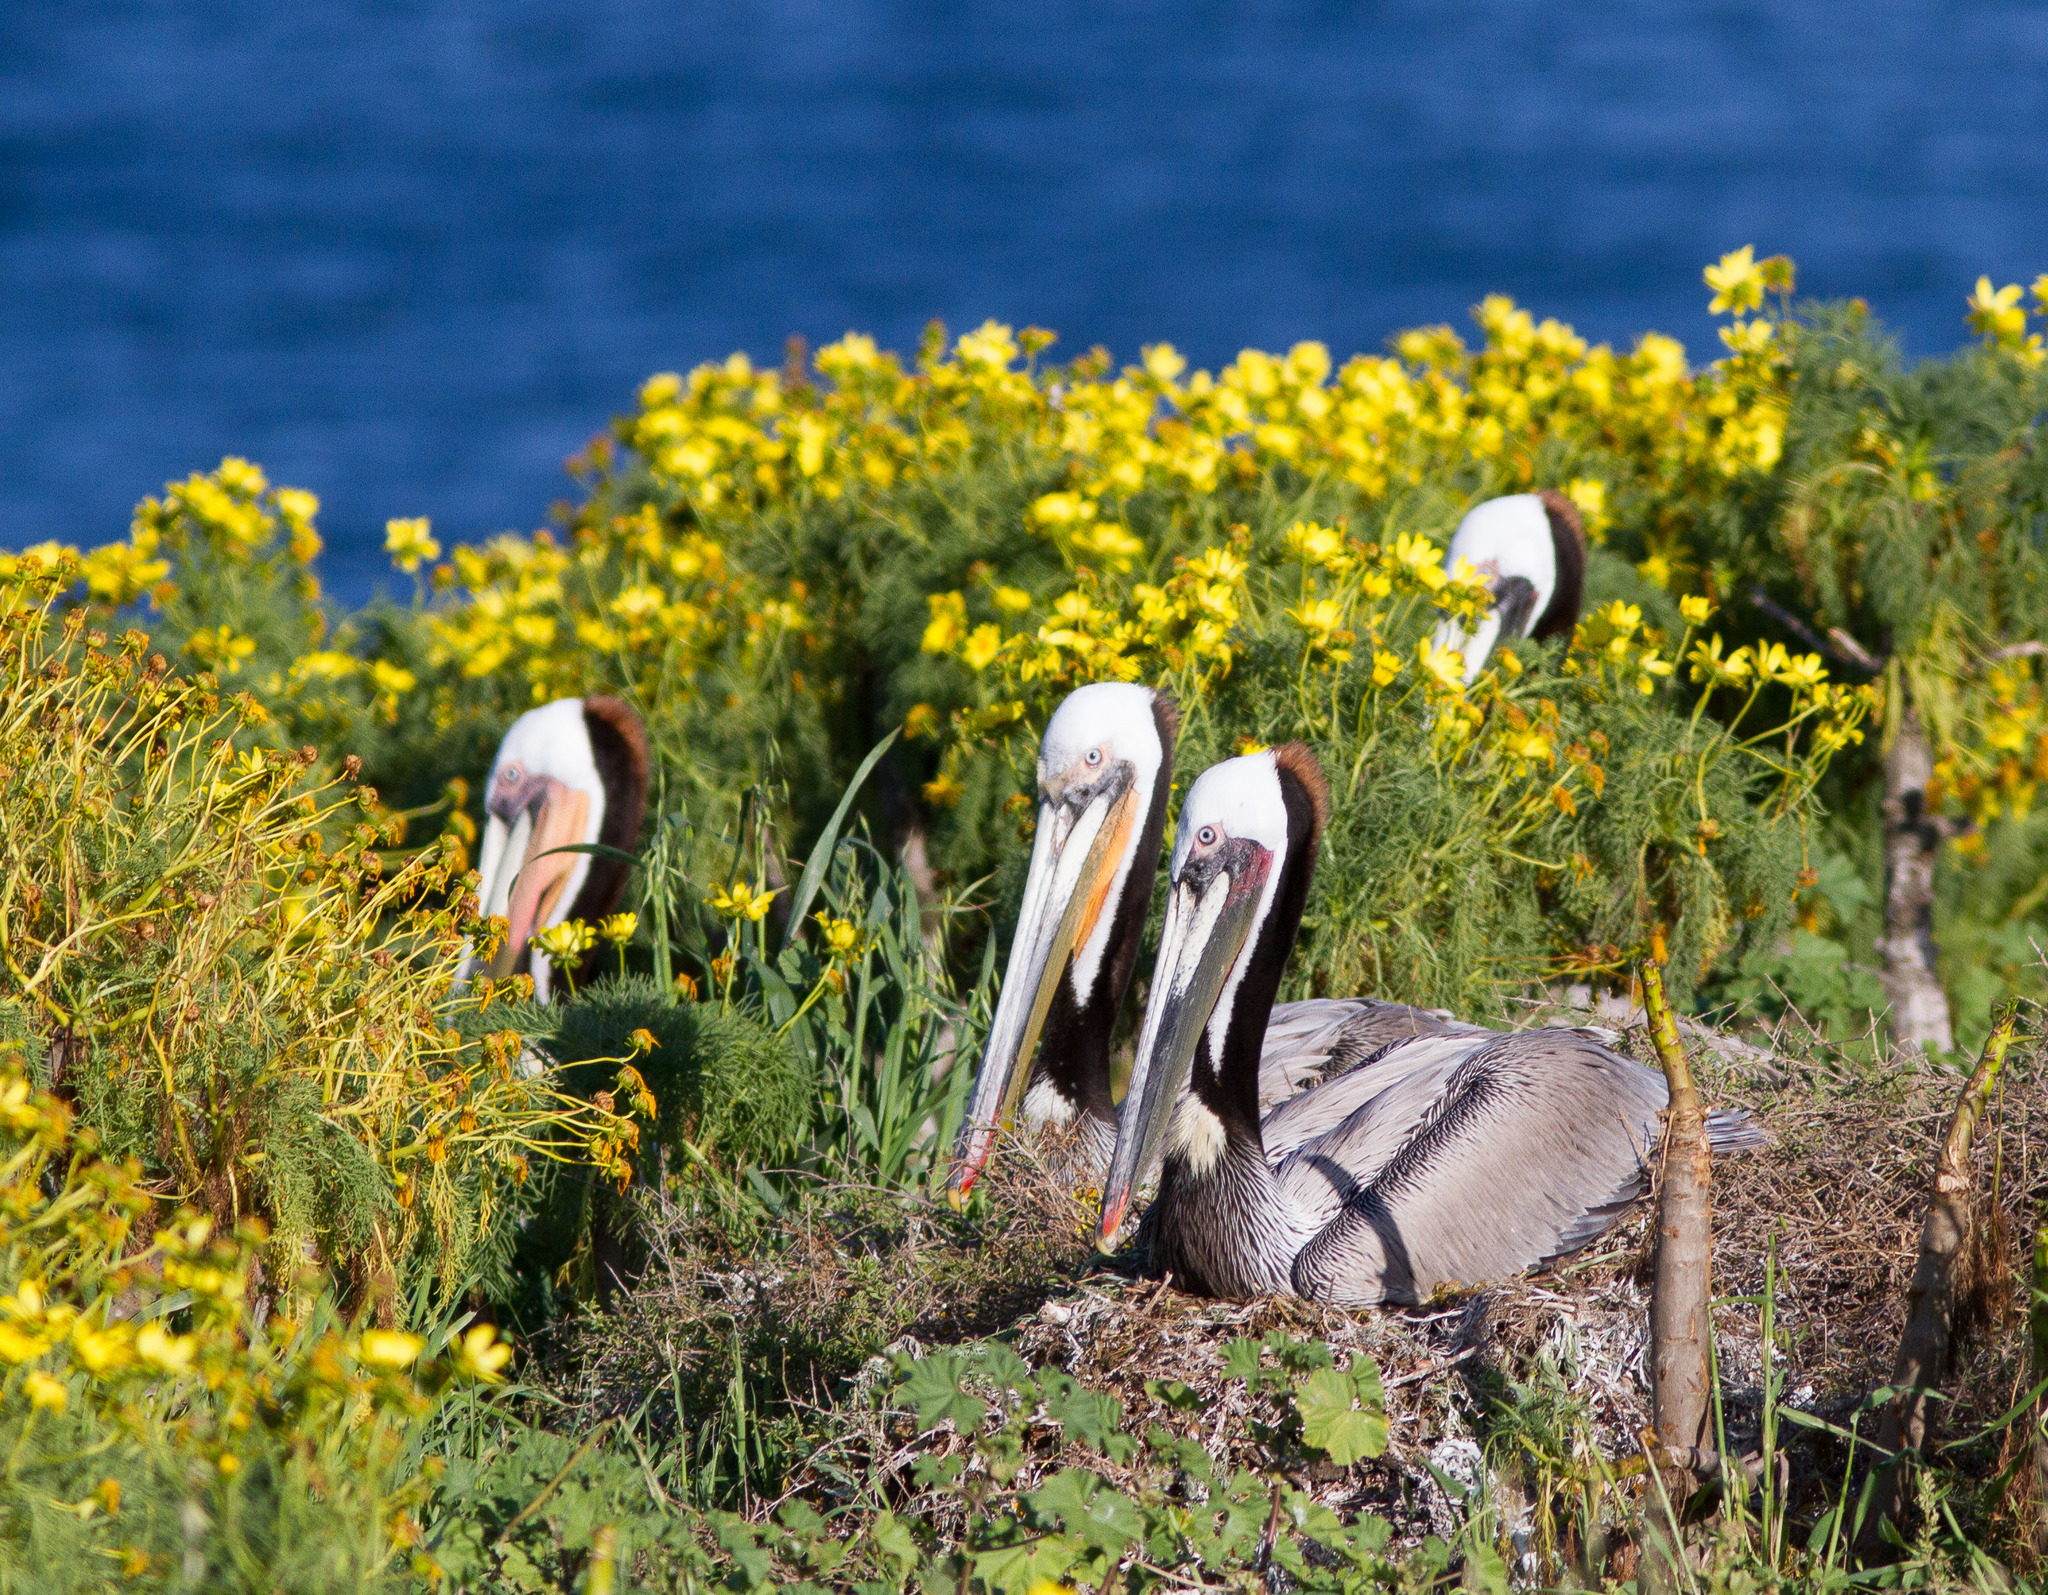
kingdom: Animalia
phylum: Chordata
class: Aves
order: Pelecaniformes
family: Pelecanidae
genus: Pelecanus
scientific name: Pelecanus occidentalis
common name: Brown pelican
